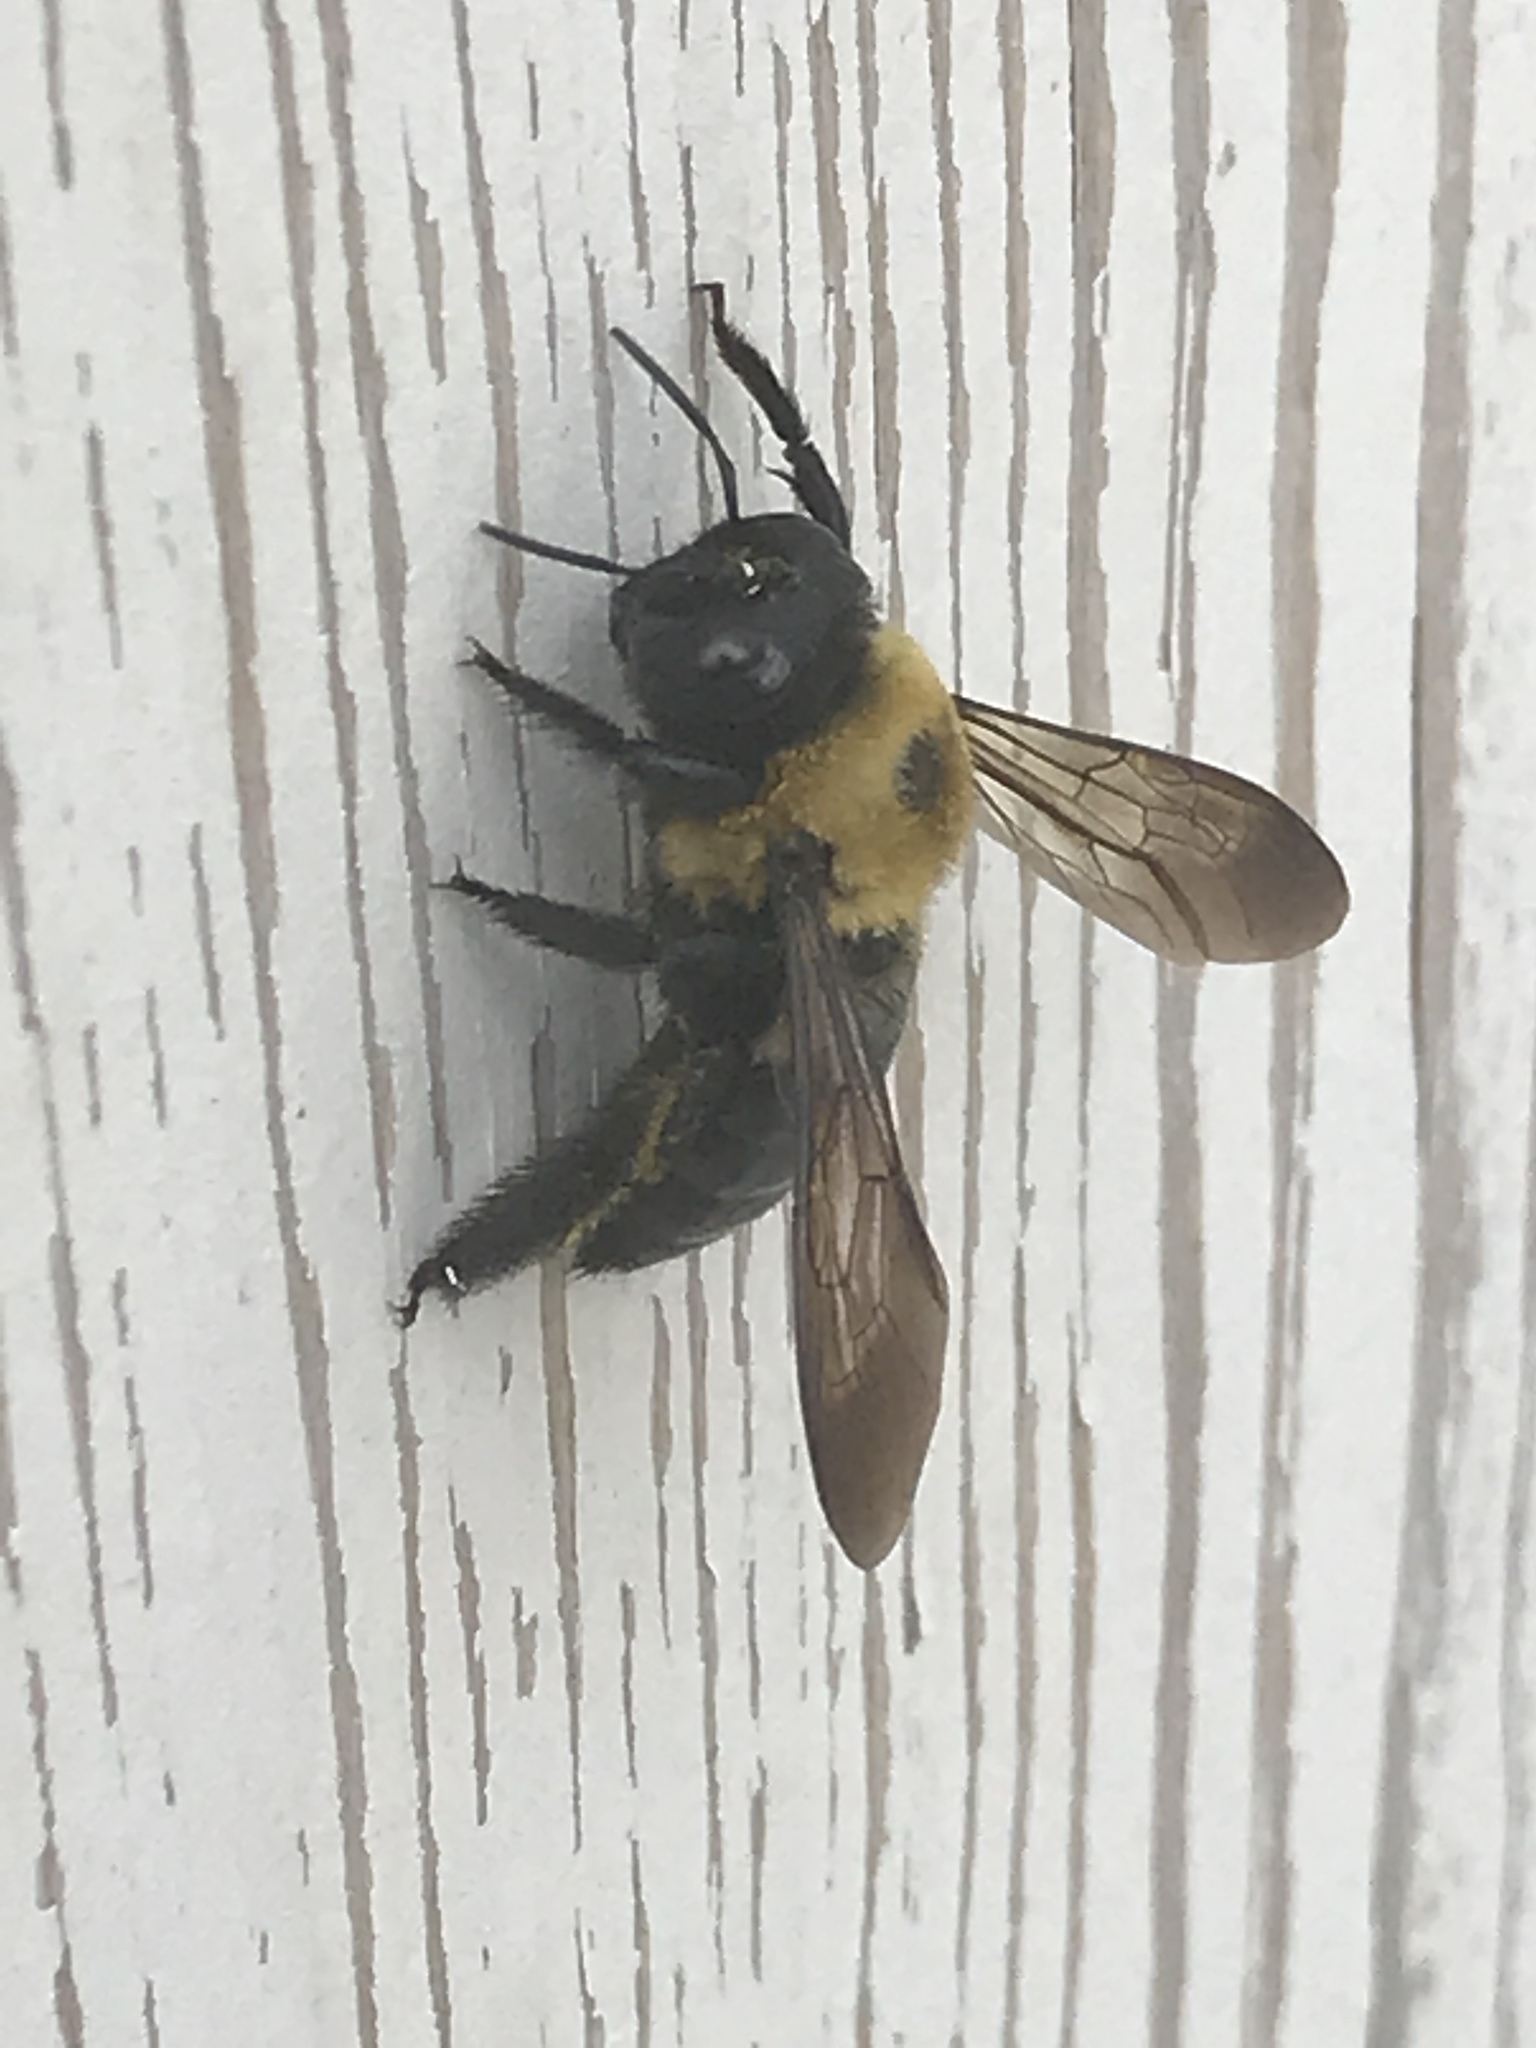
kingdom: Animalia
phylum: Arthropoda
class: Insecta
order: Hymenoptera
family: Apidae
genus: Xylocopa
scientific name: Xylocopa virginica
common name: Carpenter bee
